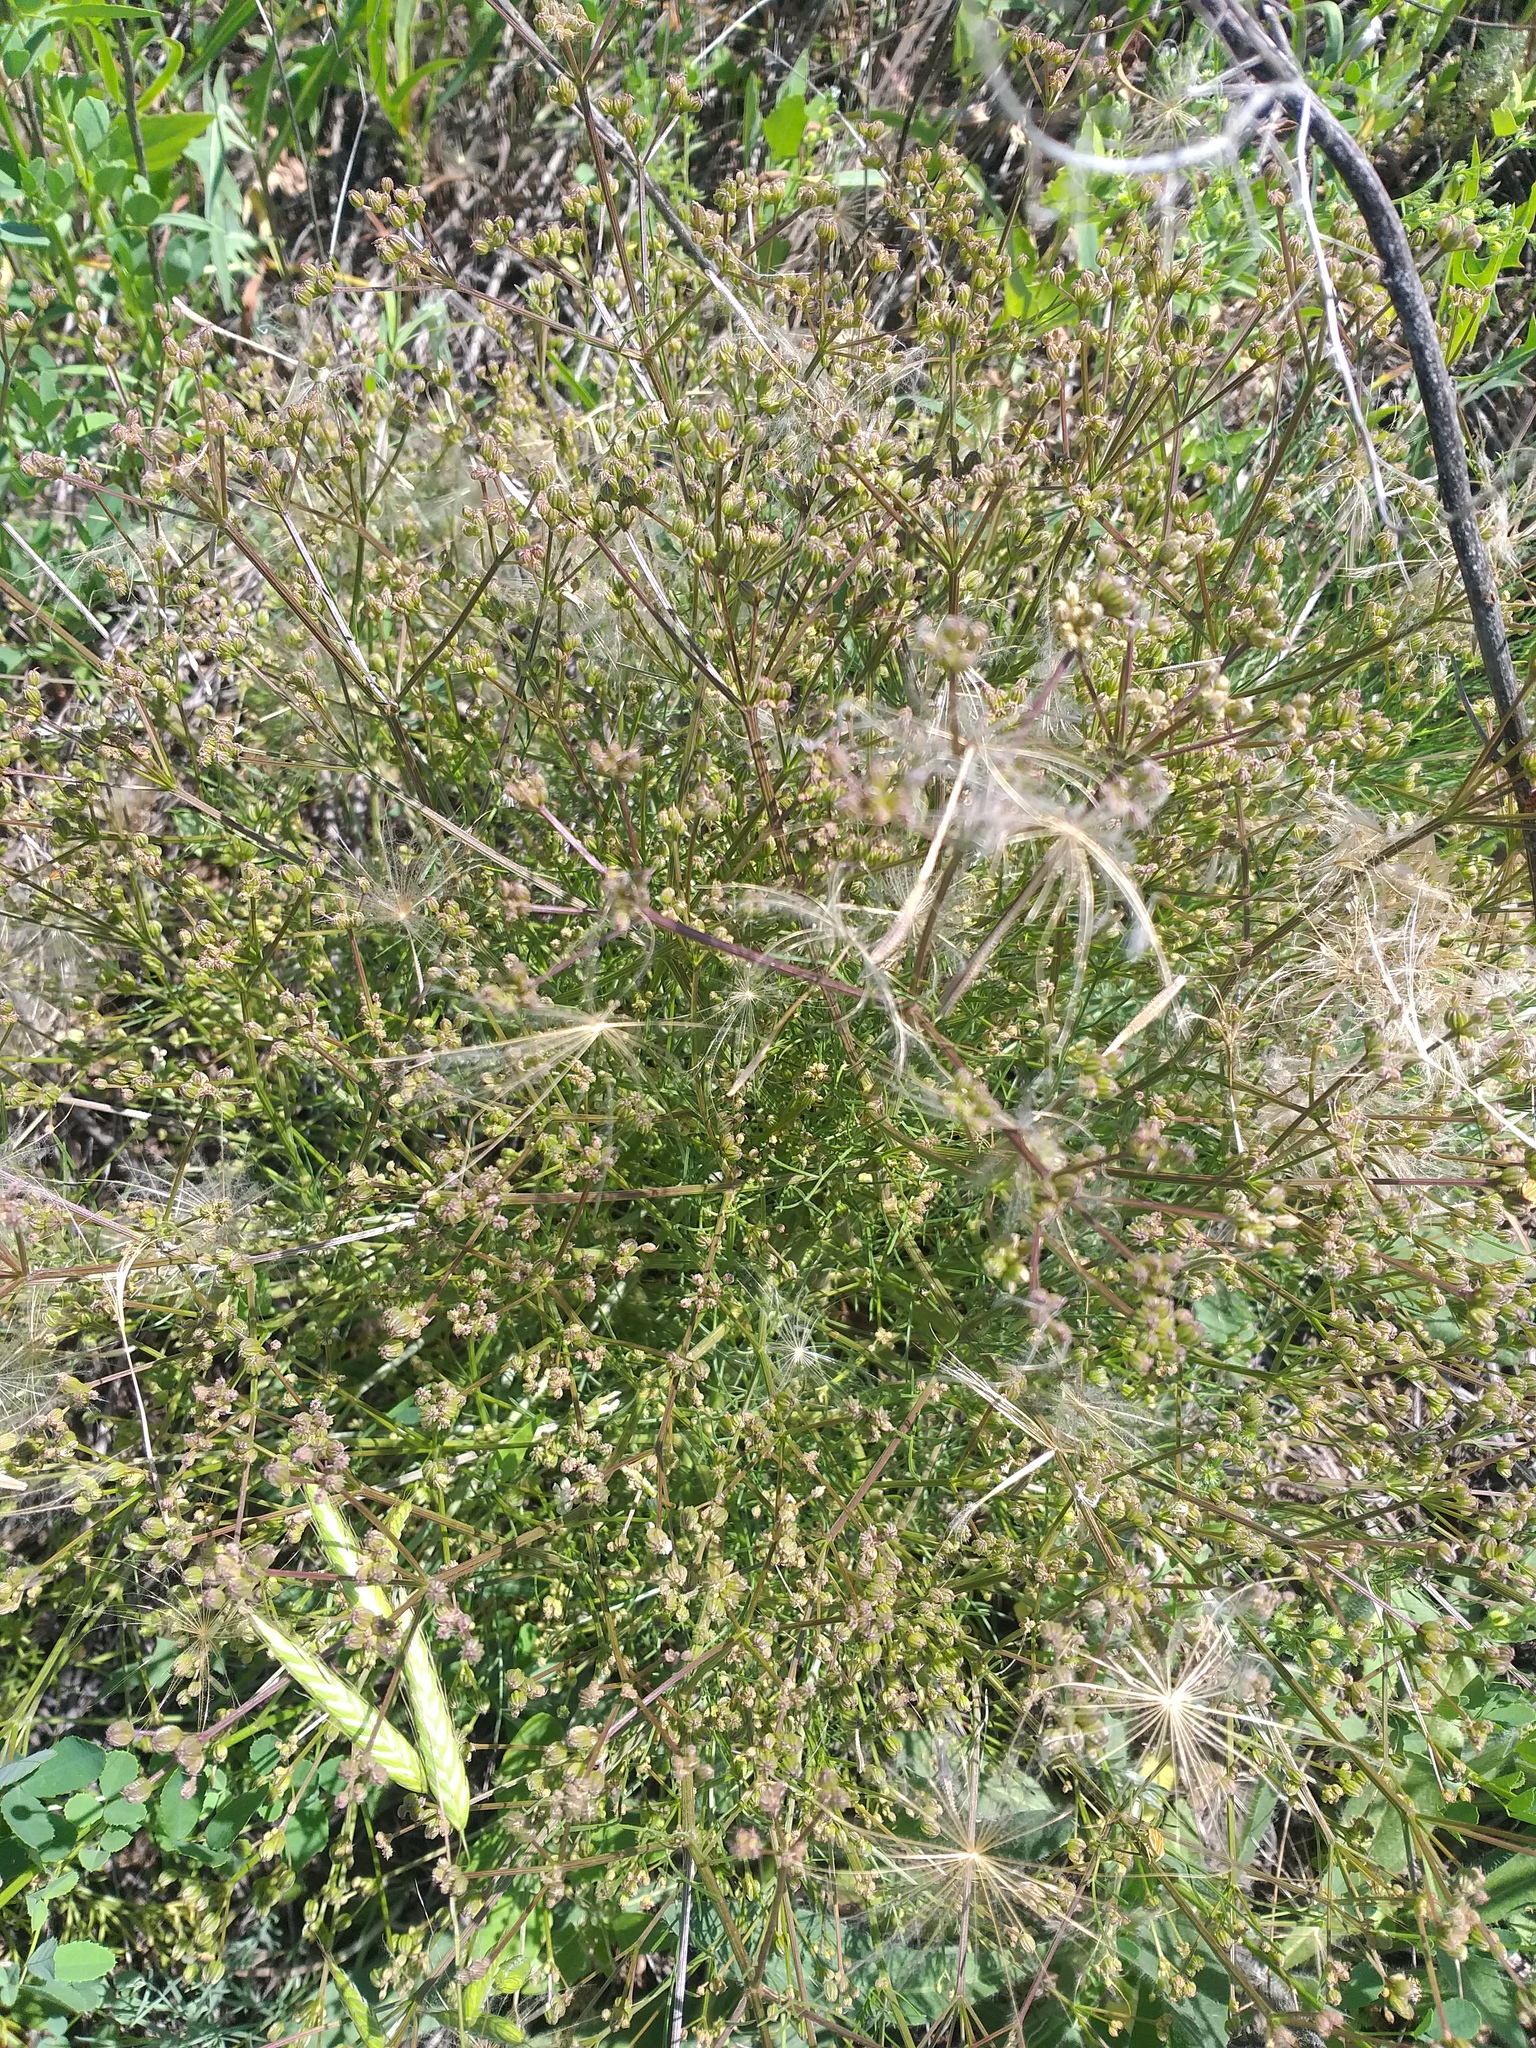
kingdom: Plantae
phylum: Tracheophyta
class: Magnoliopsida
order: Apiales
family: Apiaceae
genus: Trinia
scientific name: Trinia hispida
